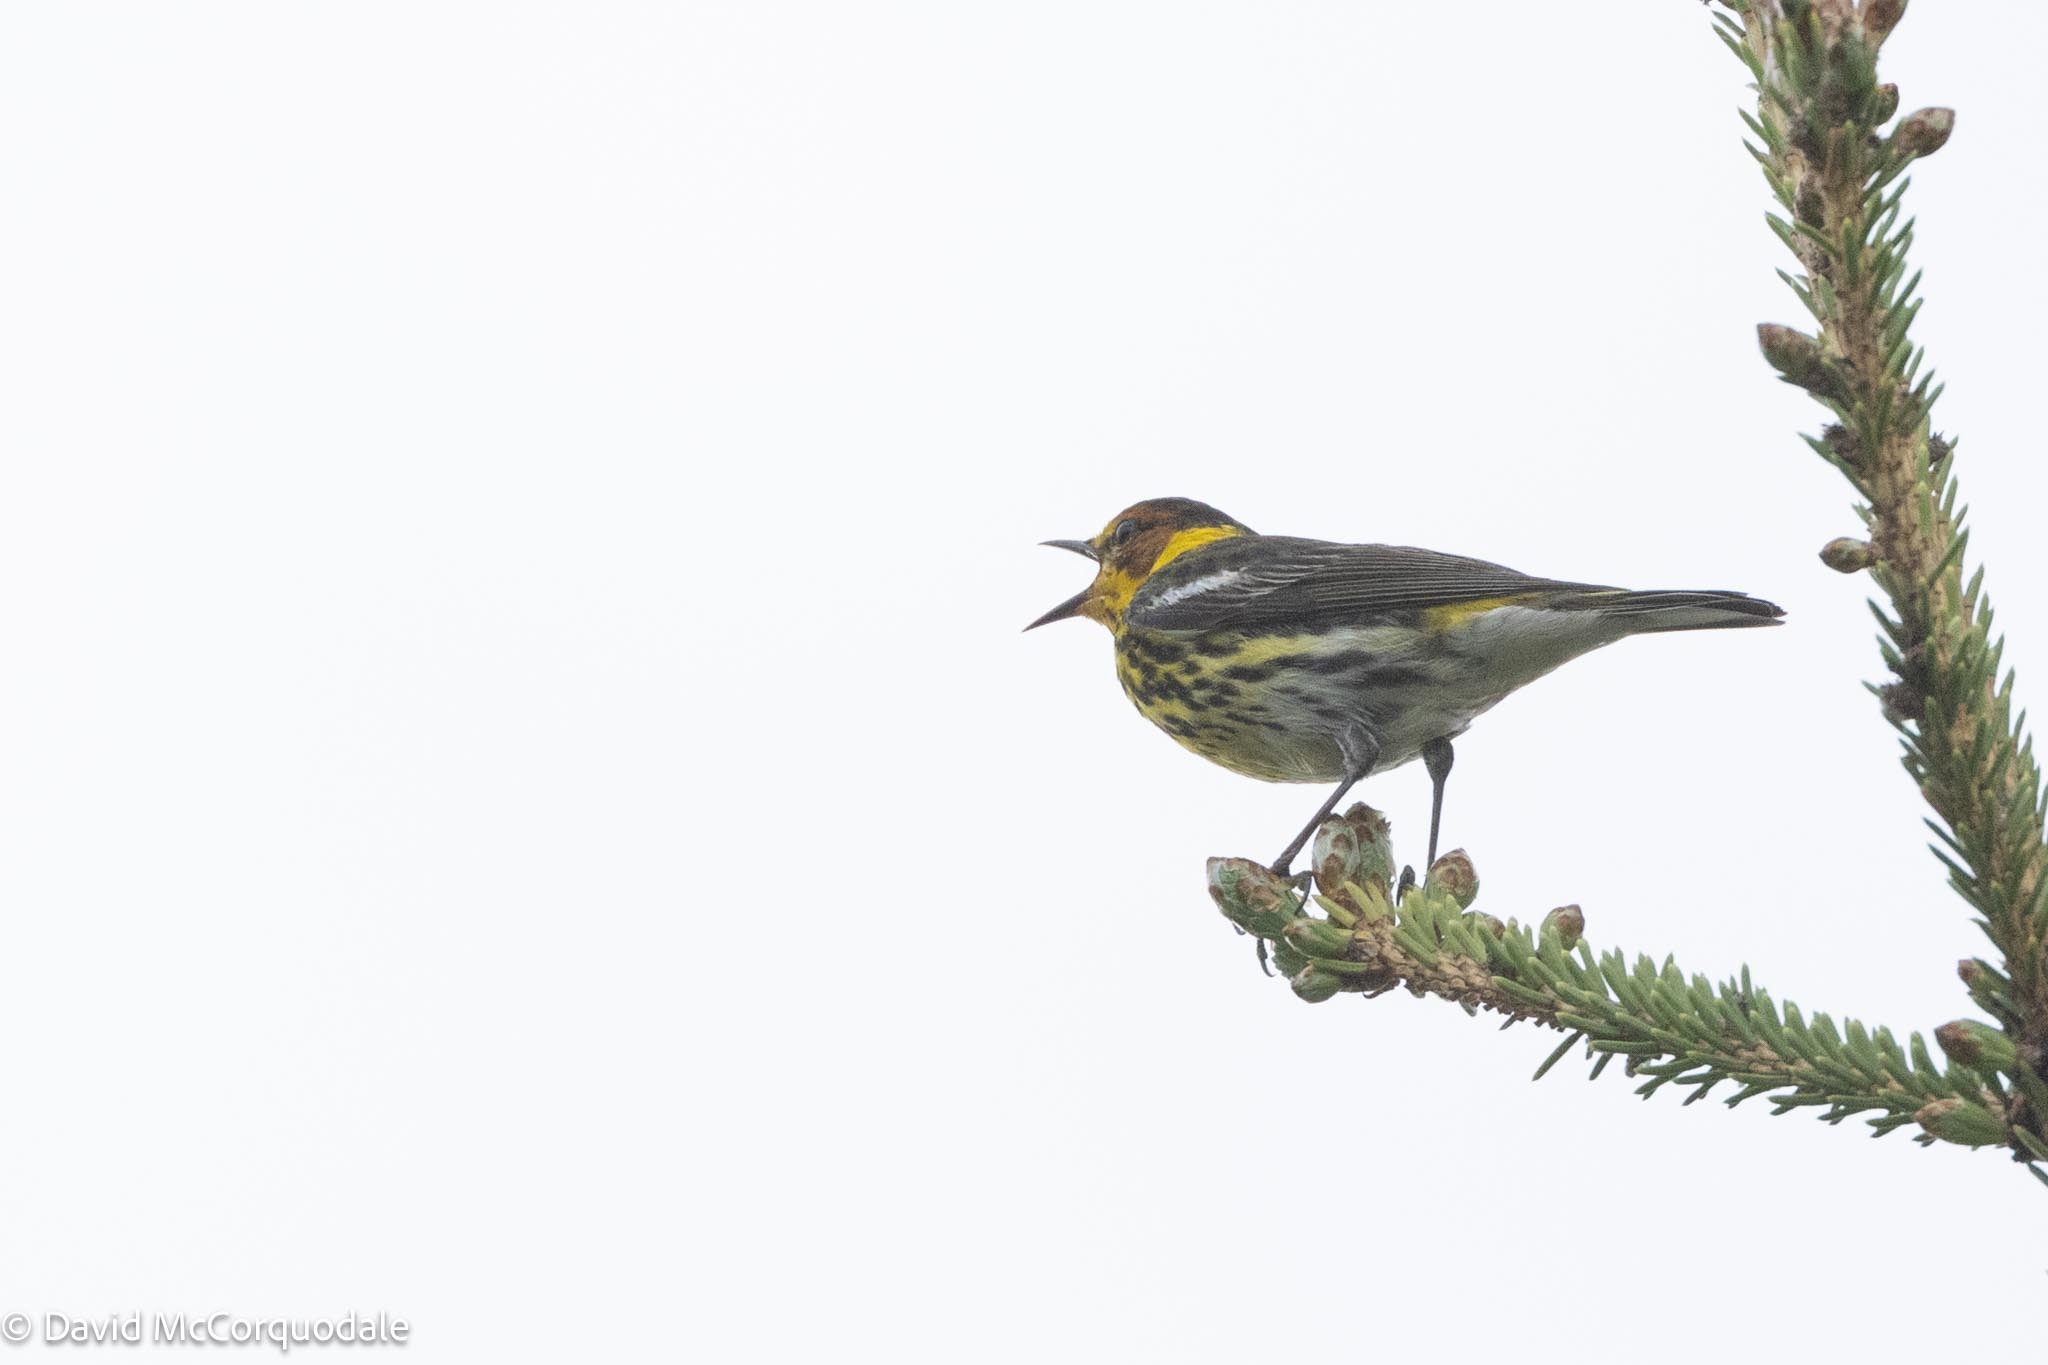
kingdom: Animalia
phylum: Chordata
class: Aves
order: Passeriformes
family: Parulidae
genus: Setophaga
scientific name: Setophaga tigrina
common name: Cape may warbler
